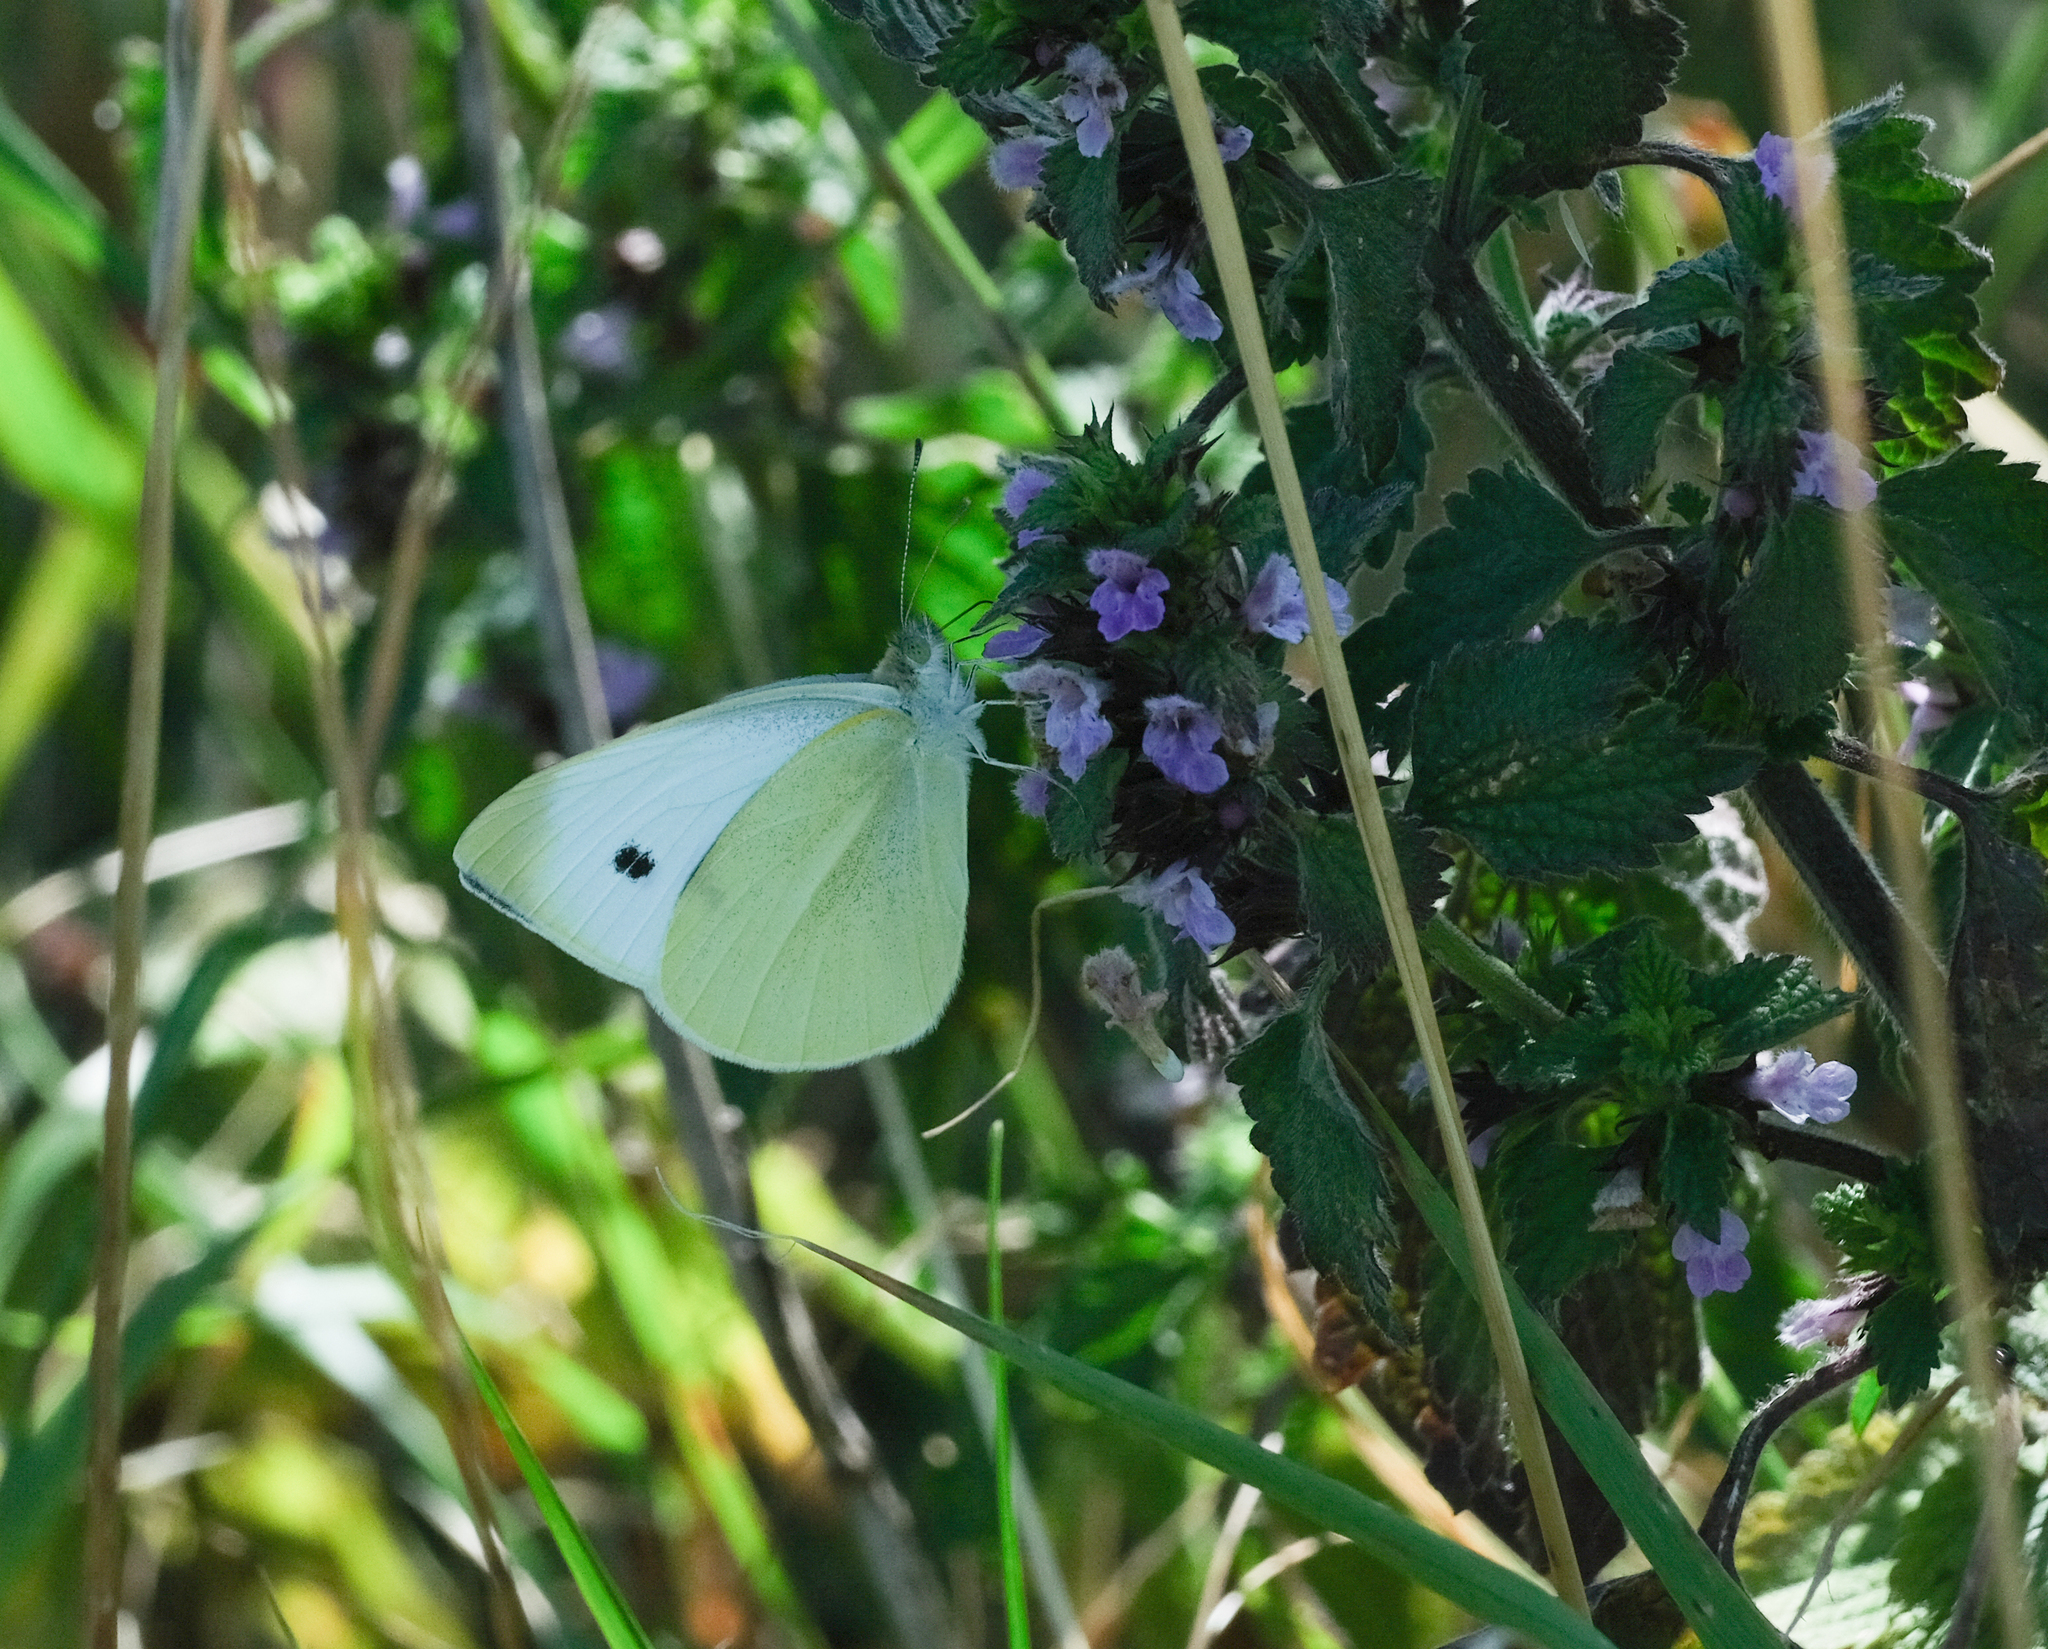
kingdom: Animalia
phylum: Arthropoda
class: Insecta
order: Lepidoptera
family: Pieridae
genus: Pieris
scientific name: Pieris rapae
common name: Small white
